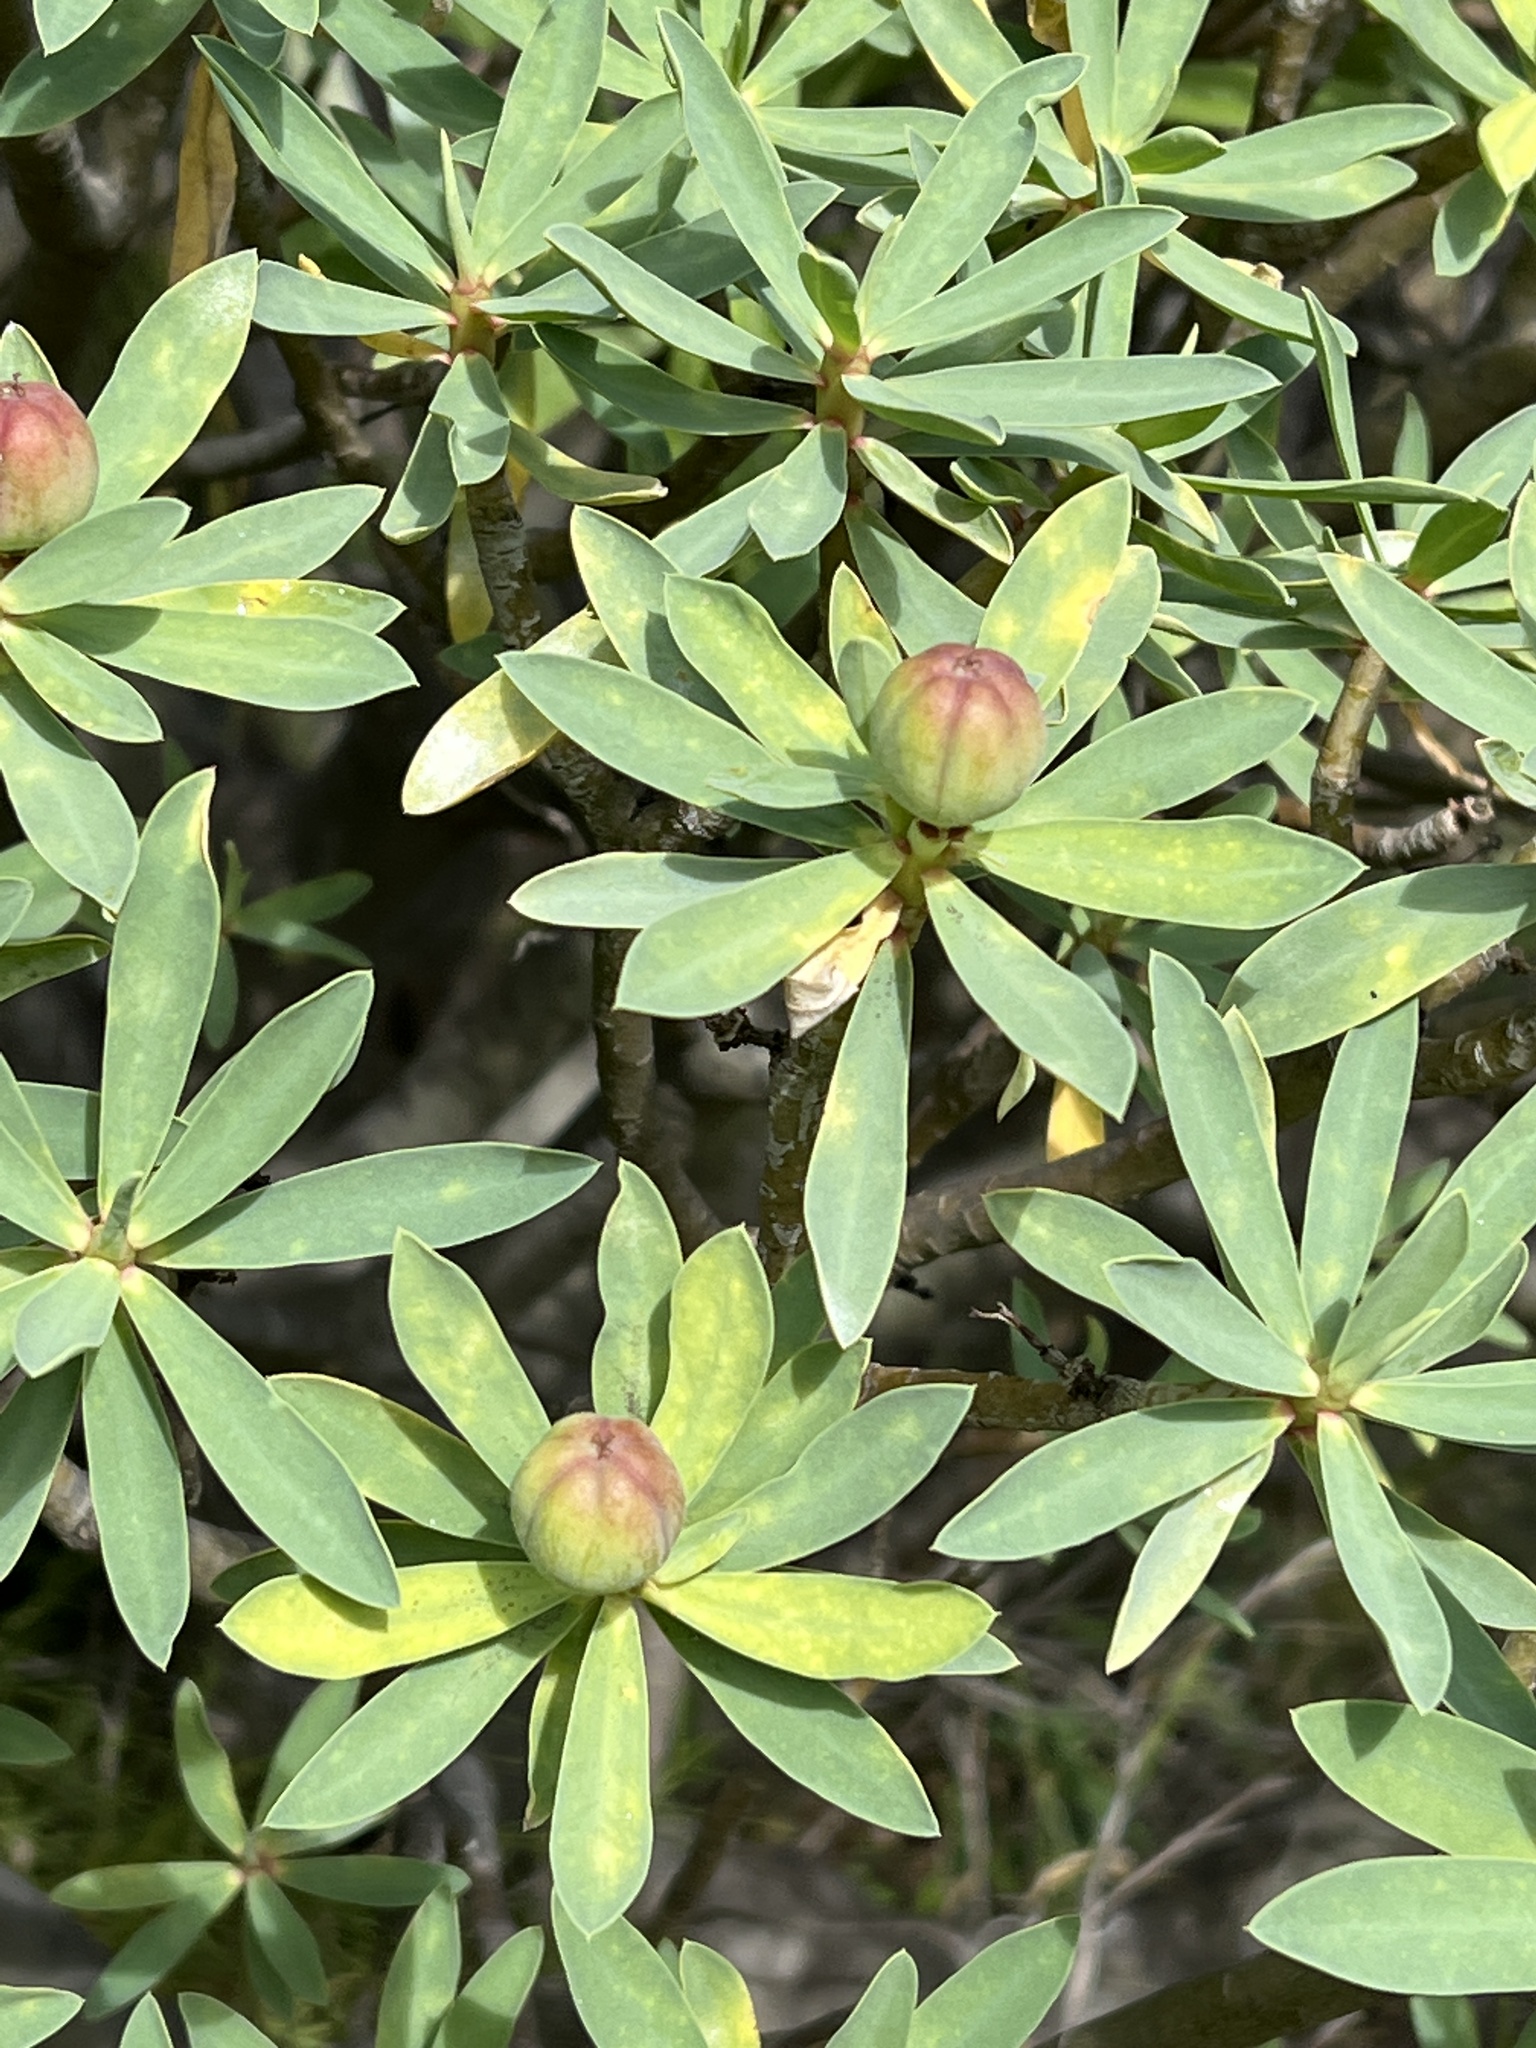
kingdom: Plantae
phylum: Tracheophyta
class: Magnoliopsida
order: Malpighiales
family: Euphorbiaceae
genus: Euphorbia
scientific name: Euphorbia balsamifera
